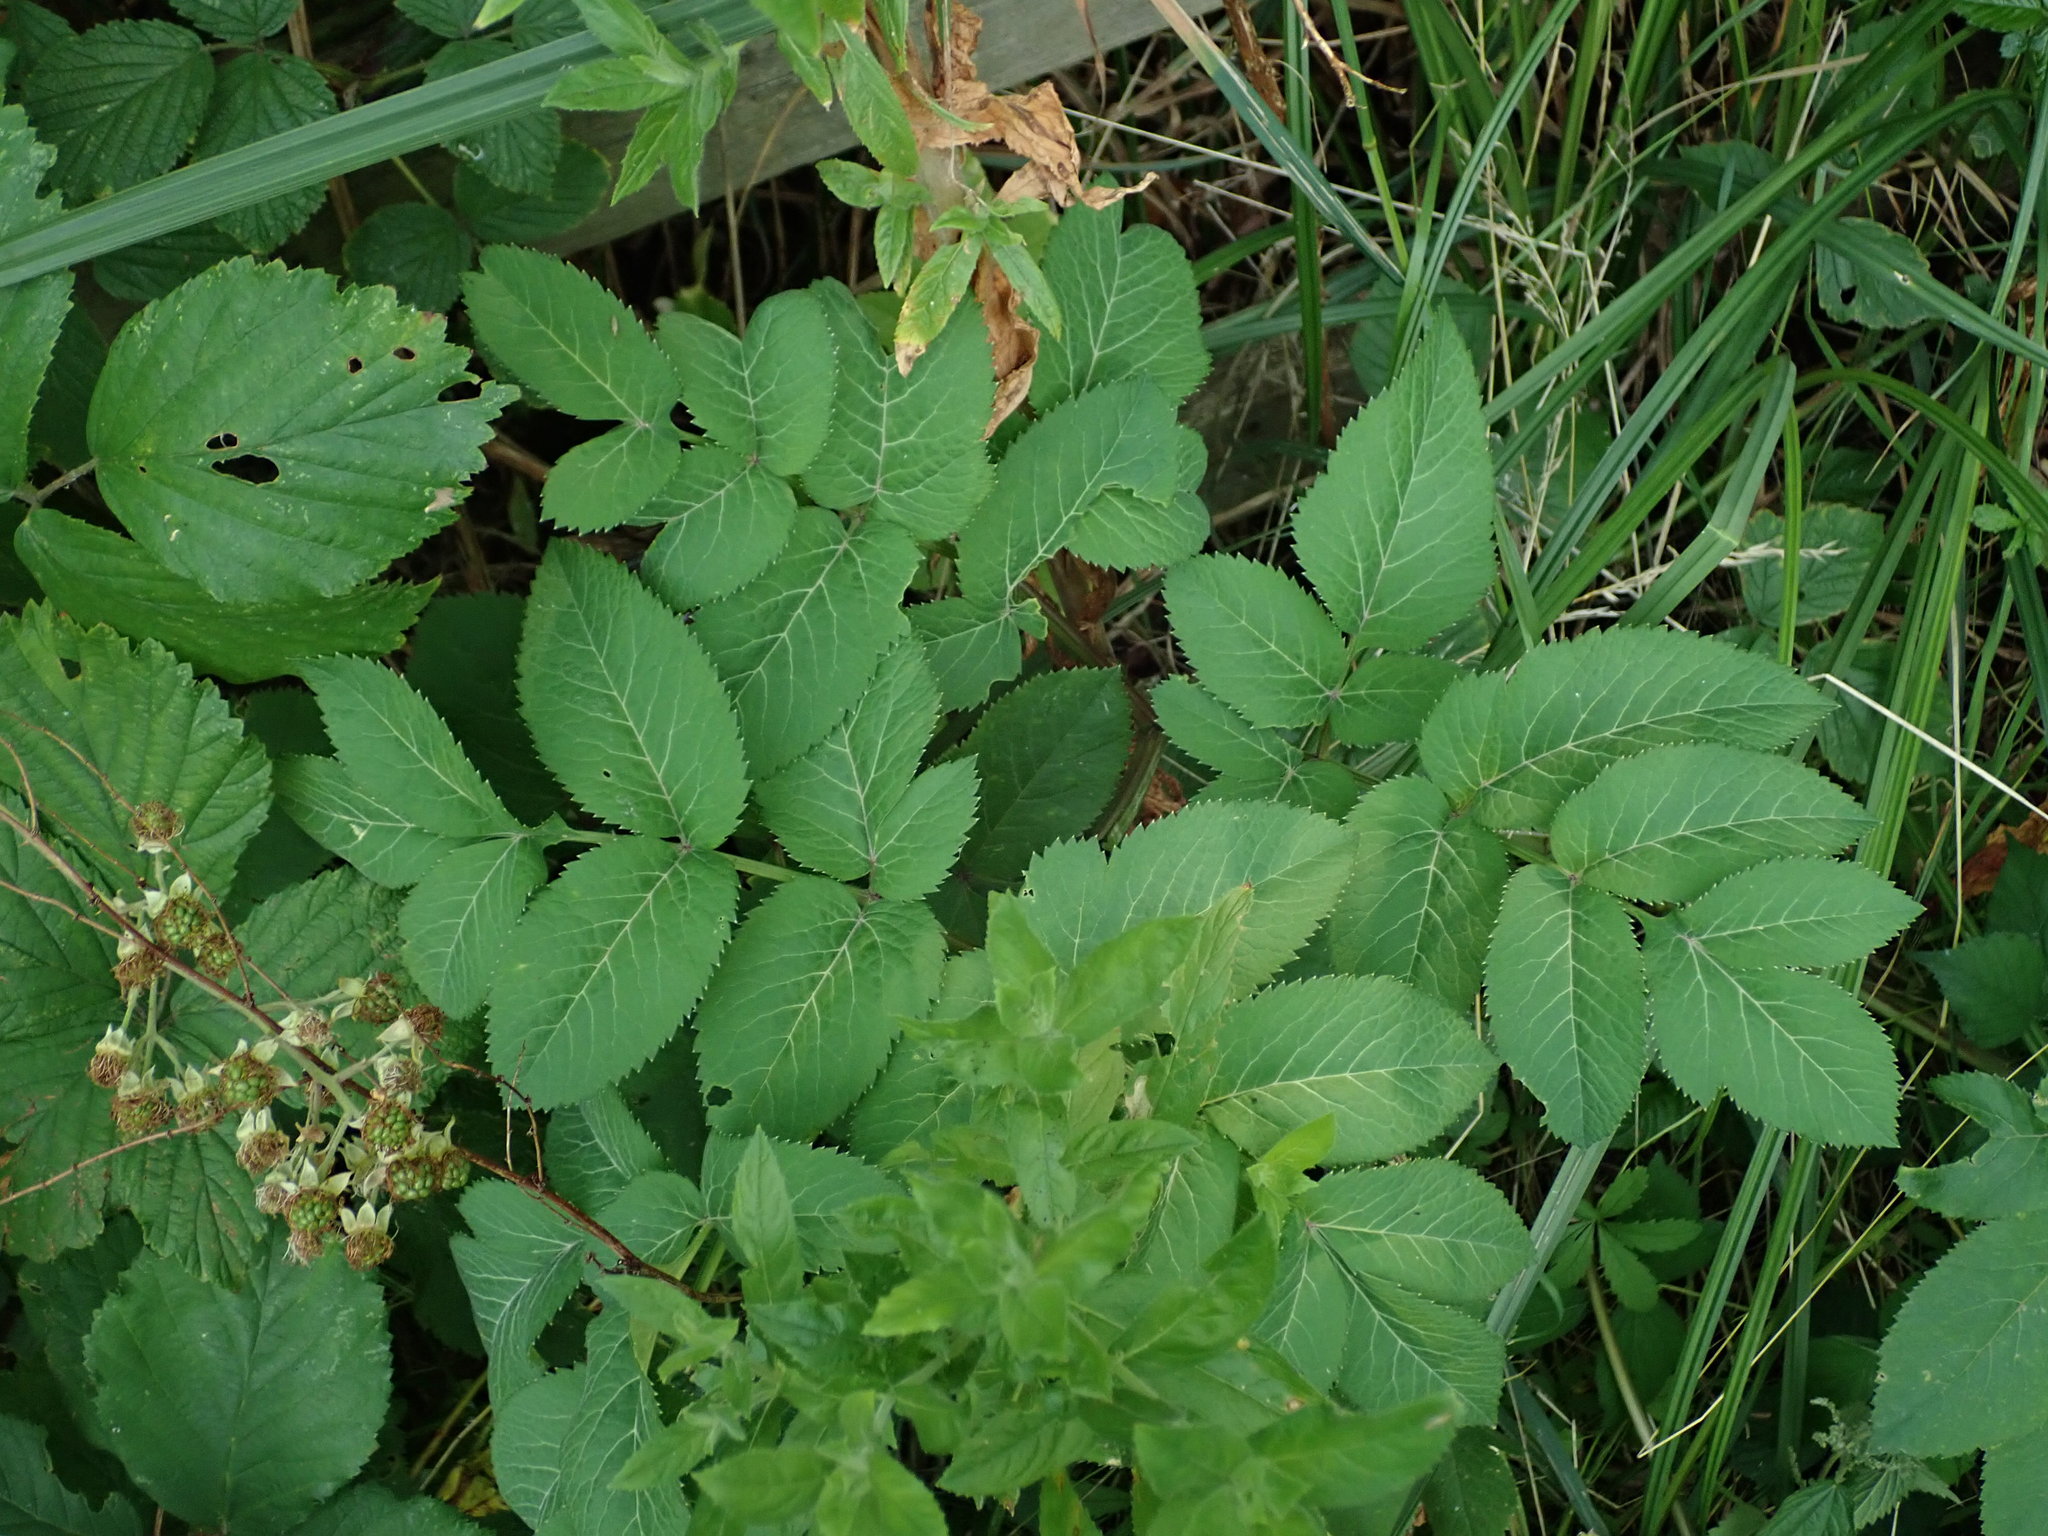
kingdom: Plantae
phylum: Tracheophyta
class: Magnoliopsida
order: Apiales
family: Apiaceae
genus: Angelica
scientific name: Angelica sylvestris
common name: Wild angelica
